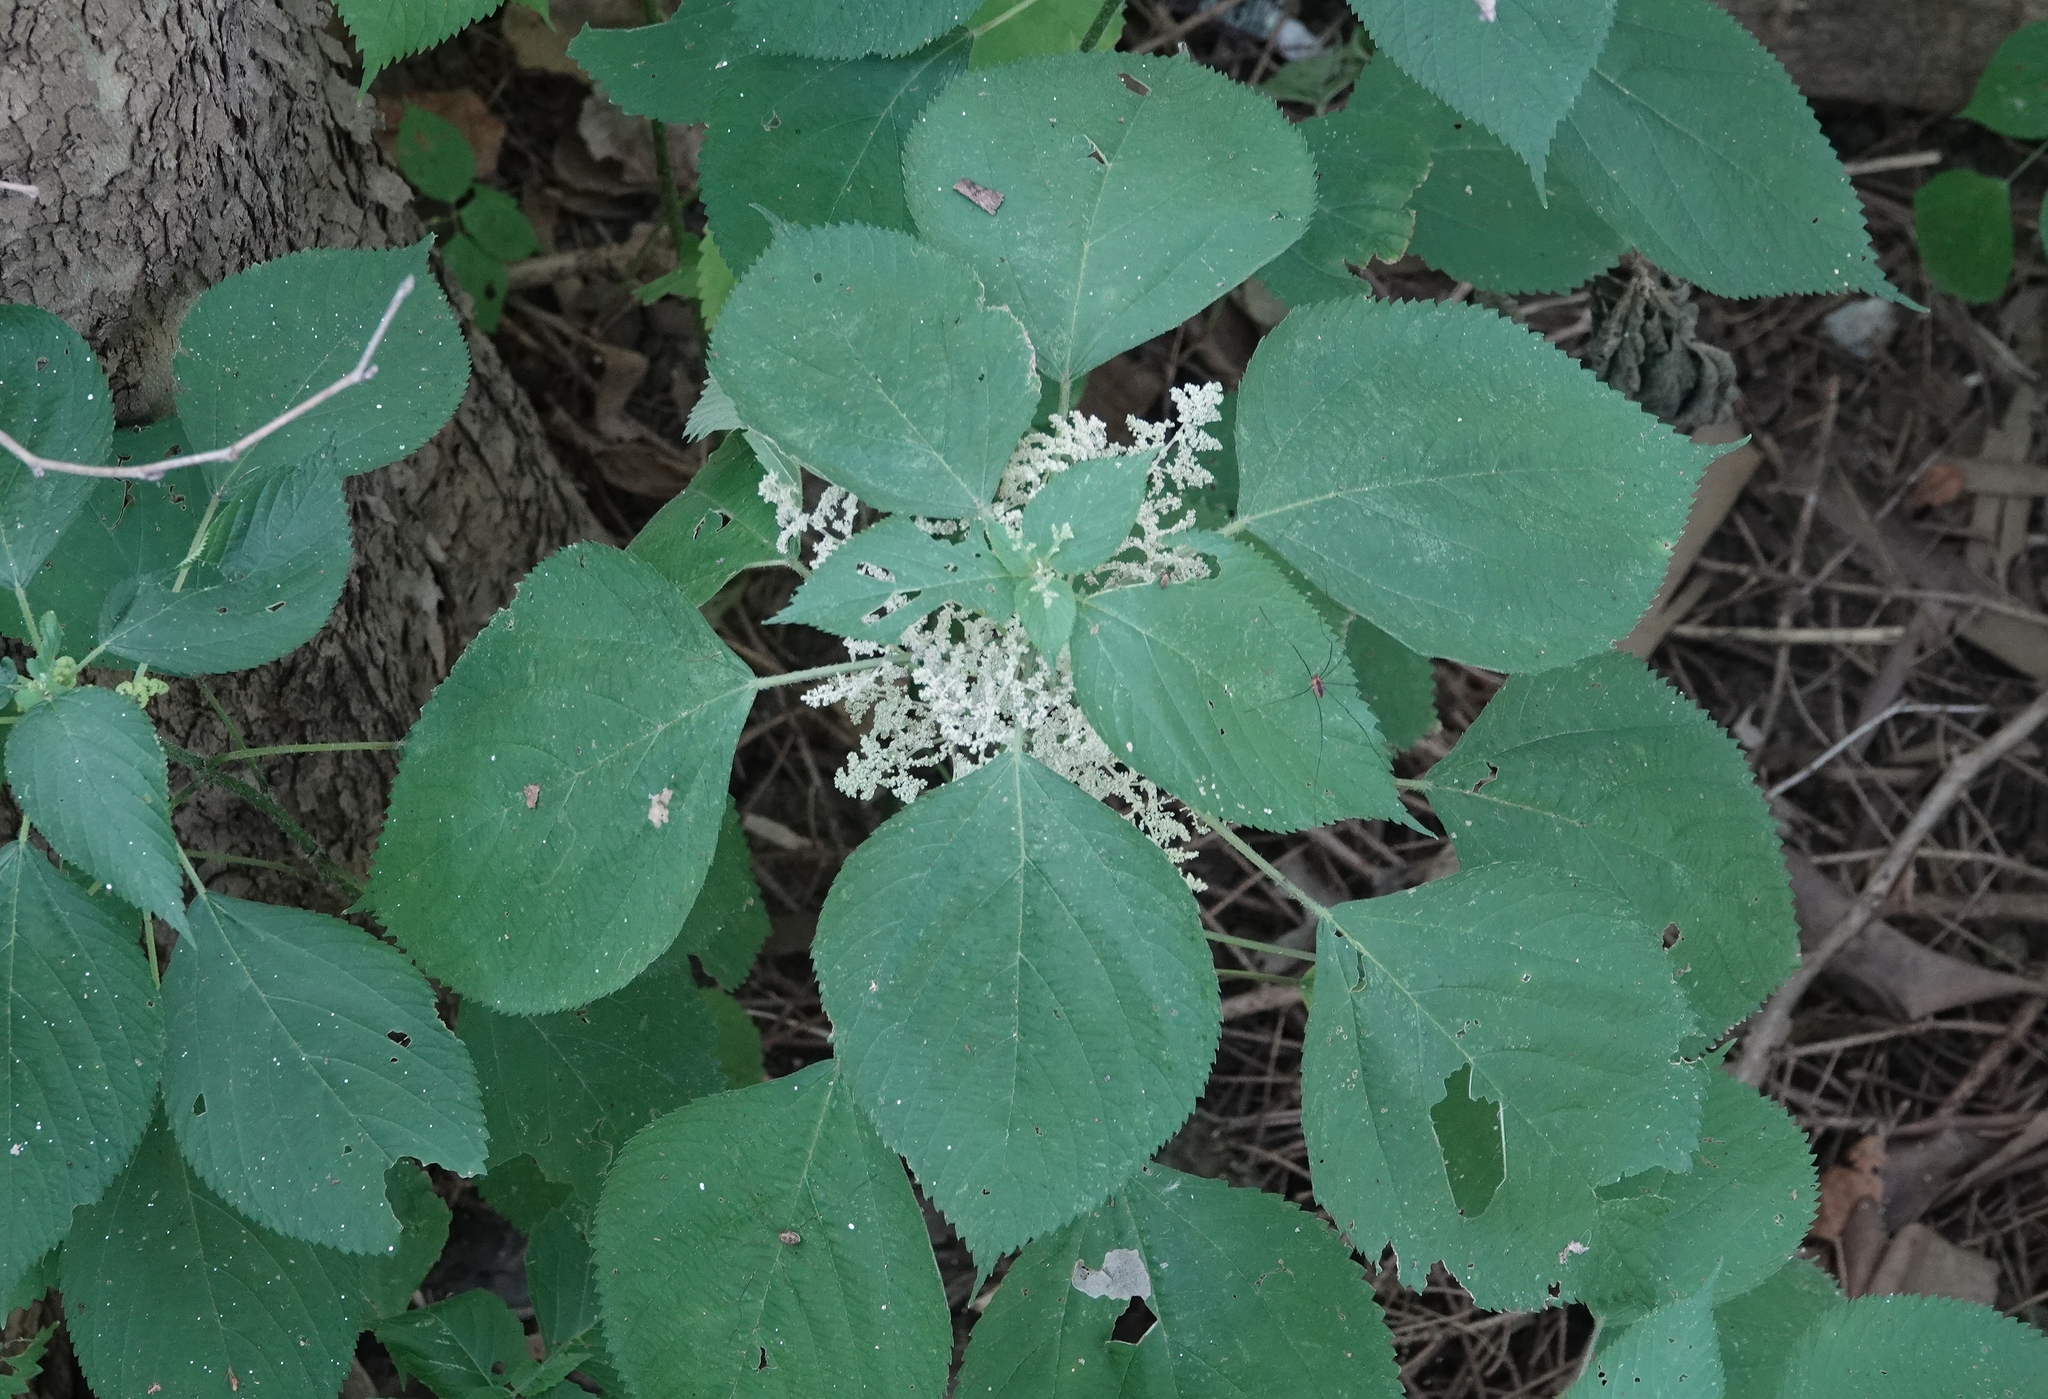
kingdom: Plantae
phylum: Tracheophyta
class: Magnoliopsida
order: Rosales
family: Urticaceae
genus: Laportea
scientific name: Laportea canadensis
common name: Canada nettle
